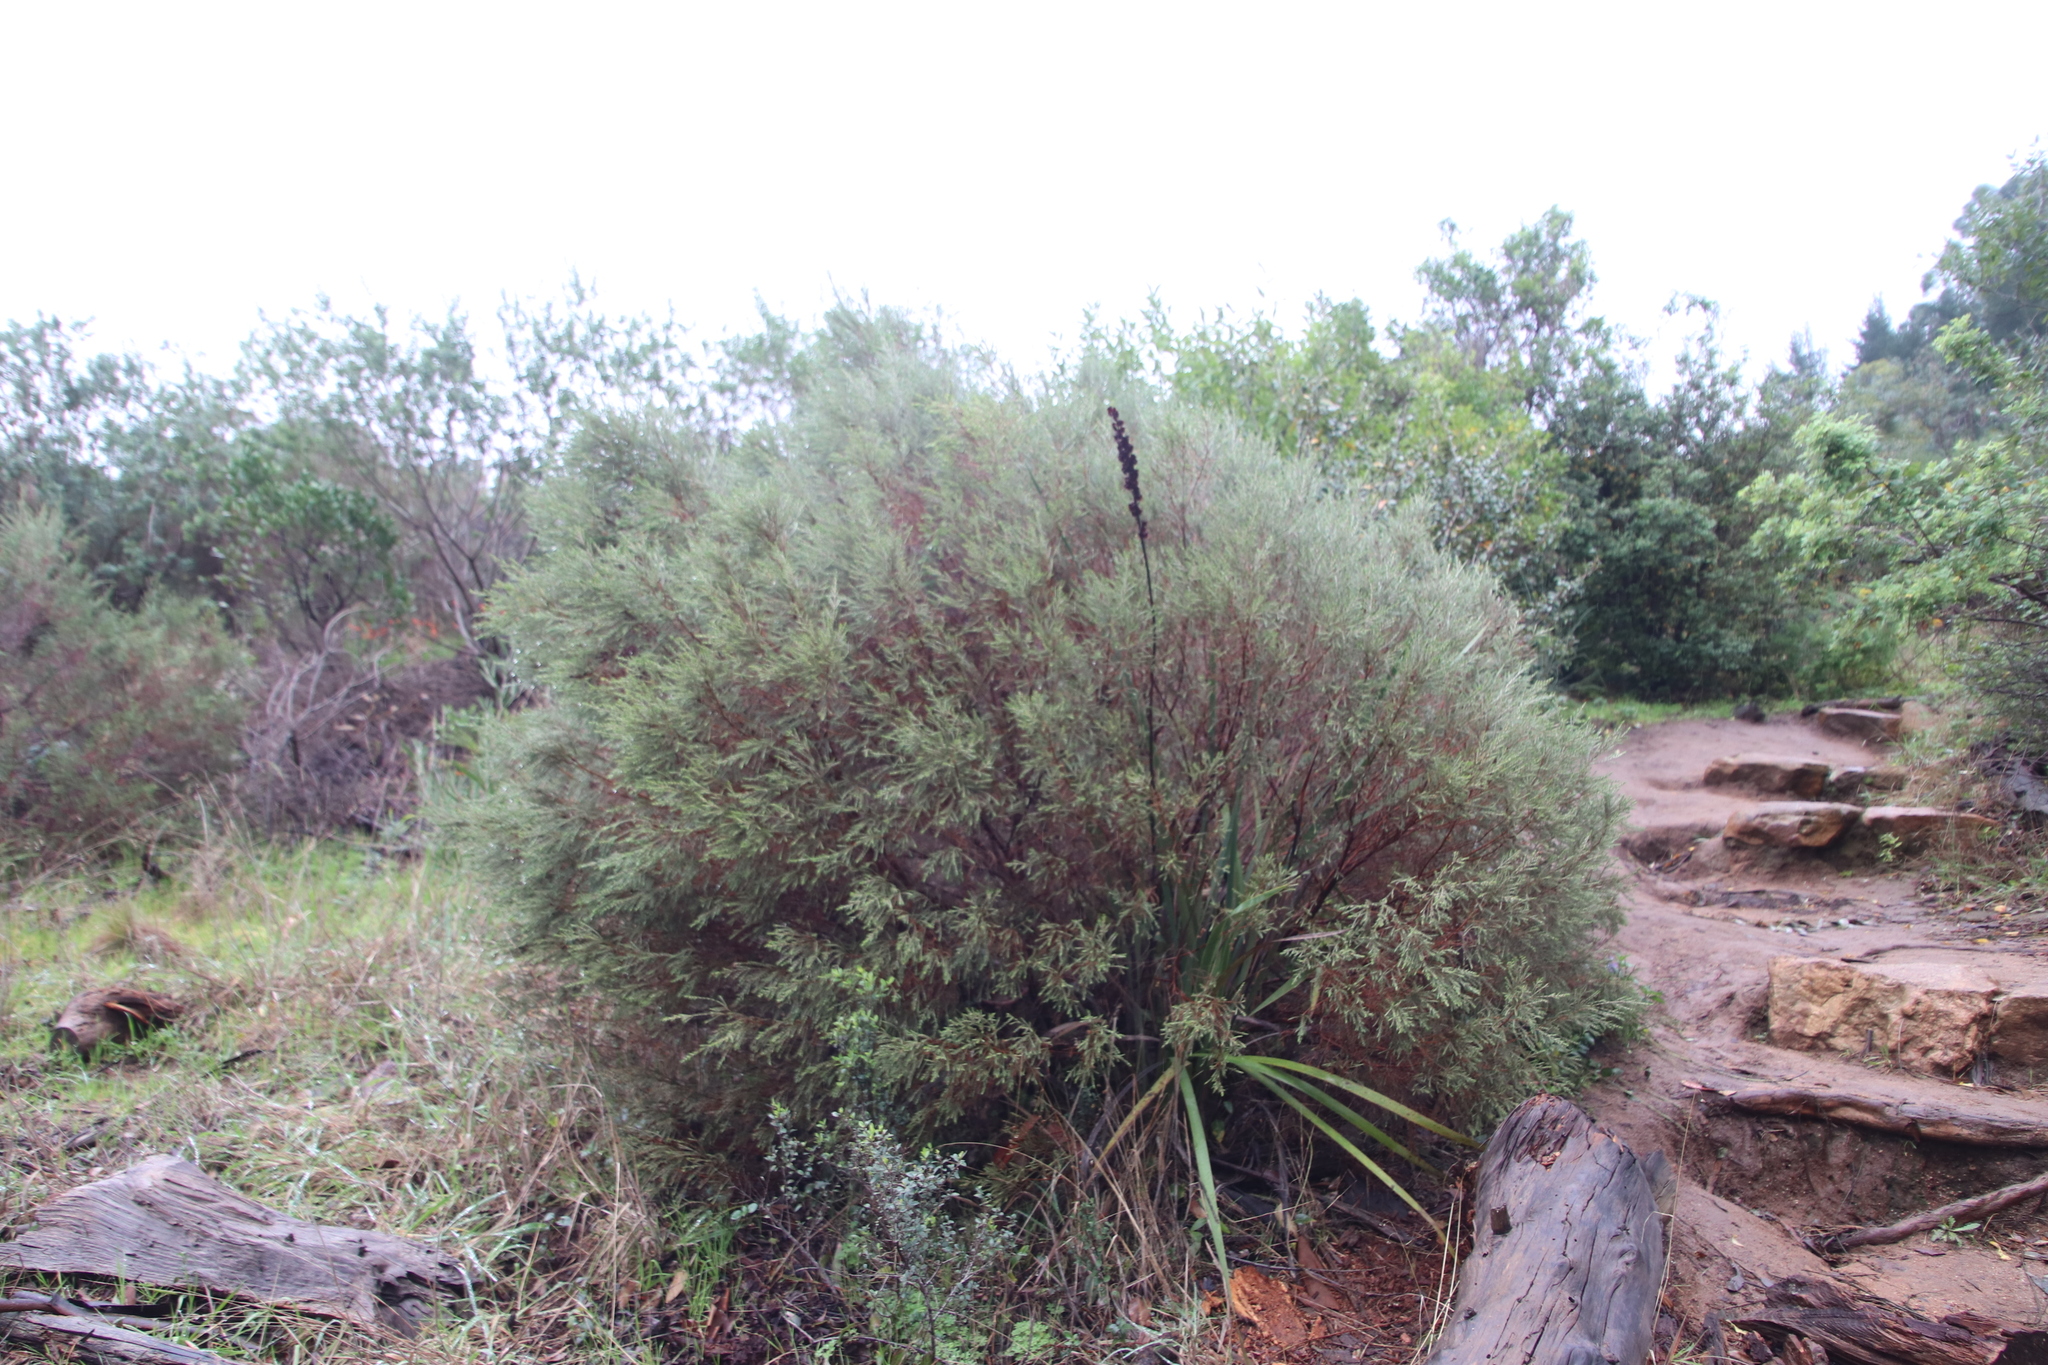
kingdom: Plantae
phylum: Tracheophyta
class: Magnoliopsida
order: Malvales
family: Thymelaeaceae
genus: Passerina
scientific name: Passerina corymbosa
